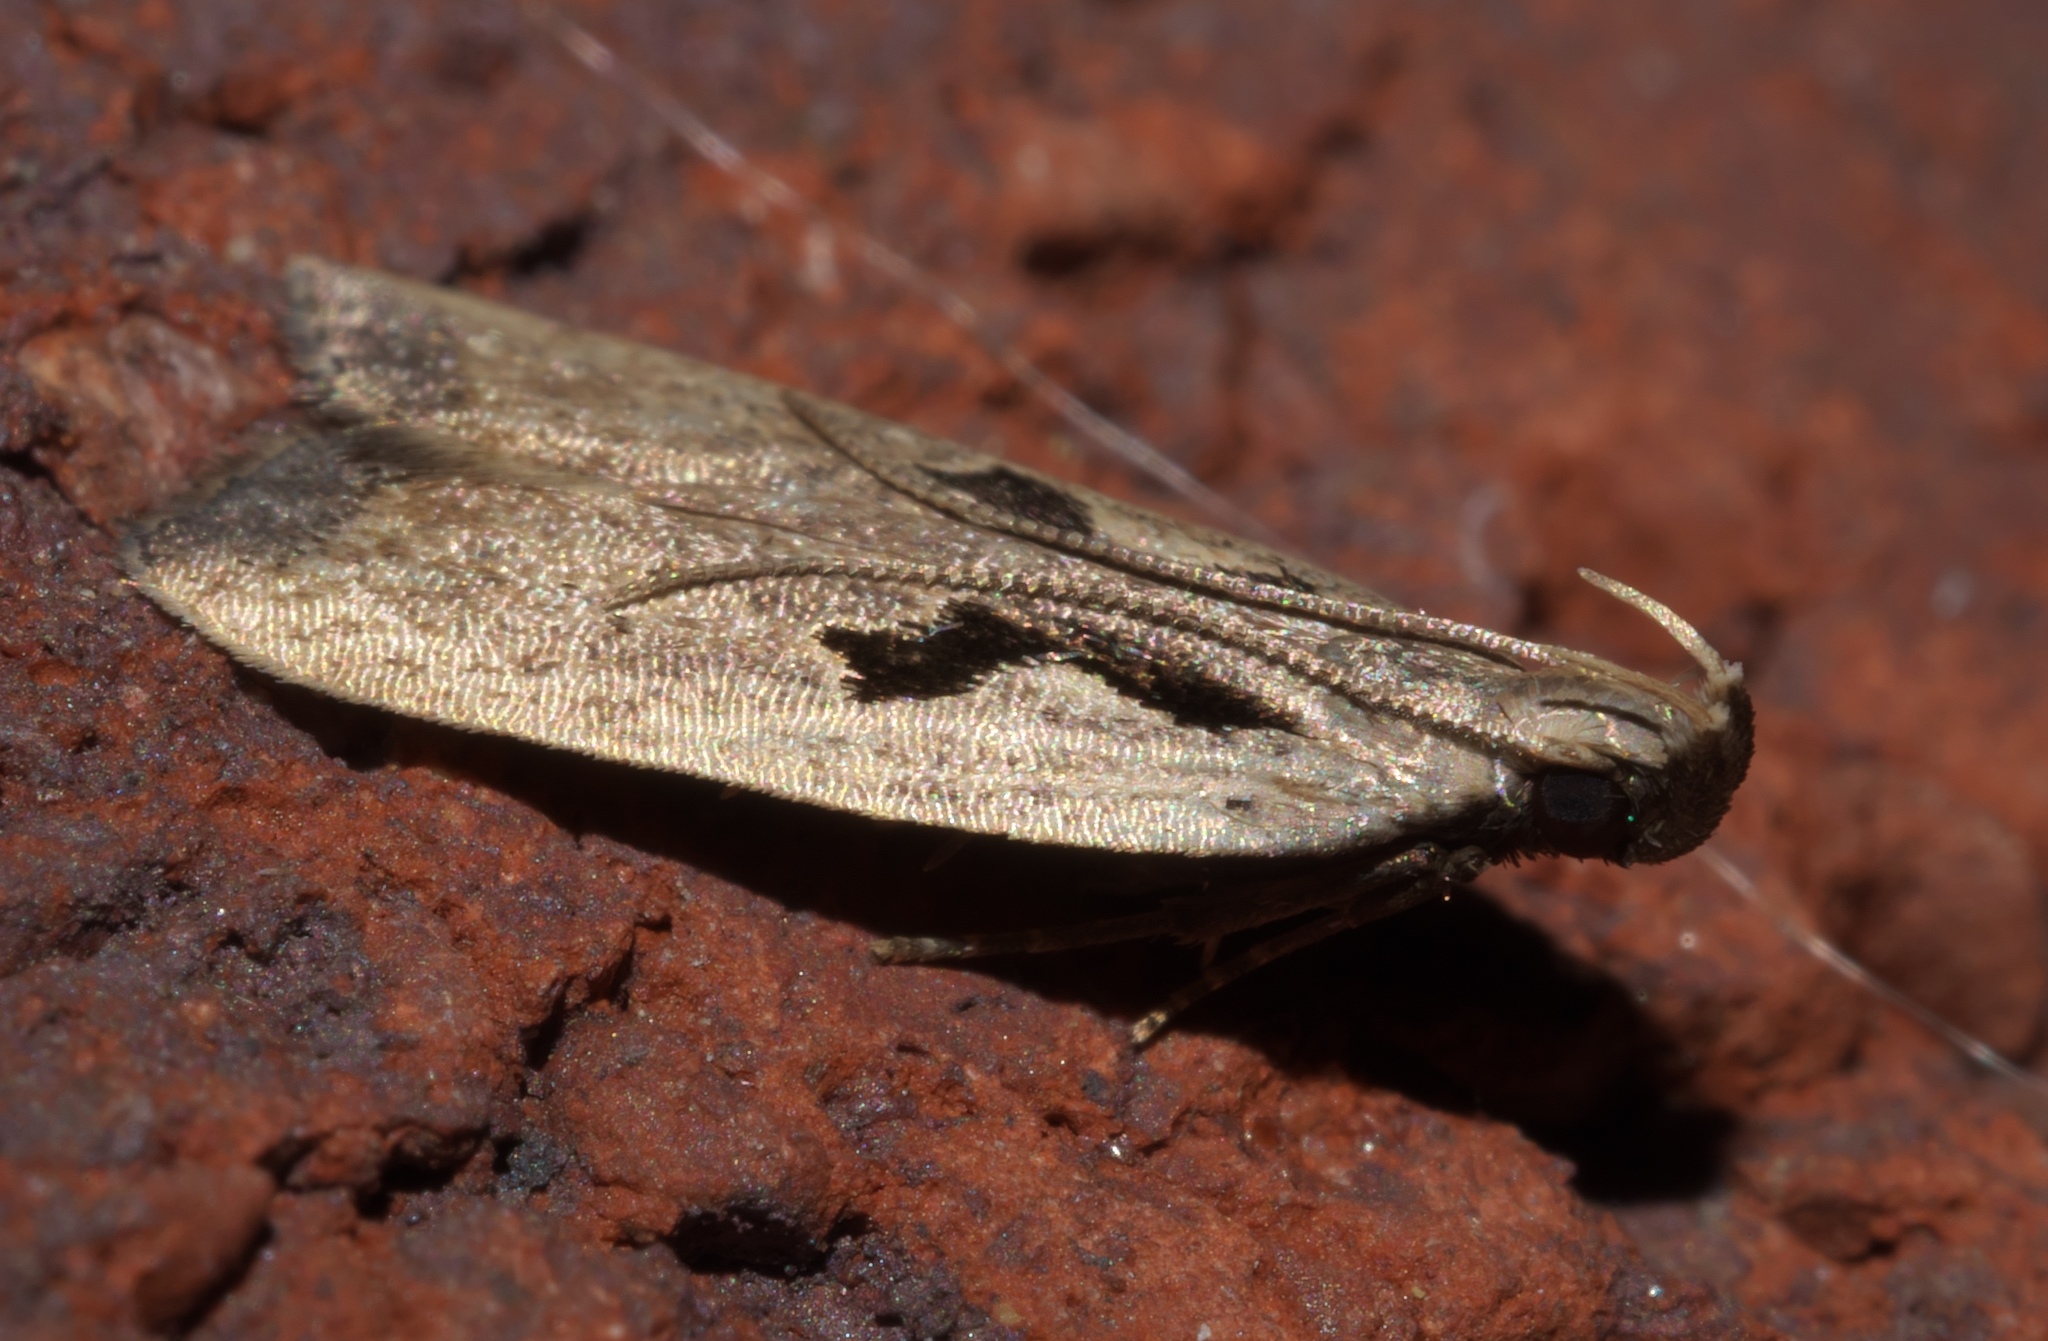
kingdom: Animalia
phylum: Arthropoda
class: Insecta
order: Lepidoptera
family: Gelechiidae
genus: Dichomeris
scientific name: Dichomeris laetitia
